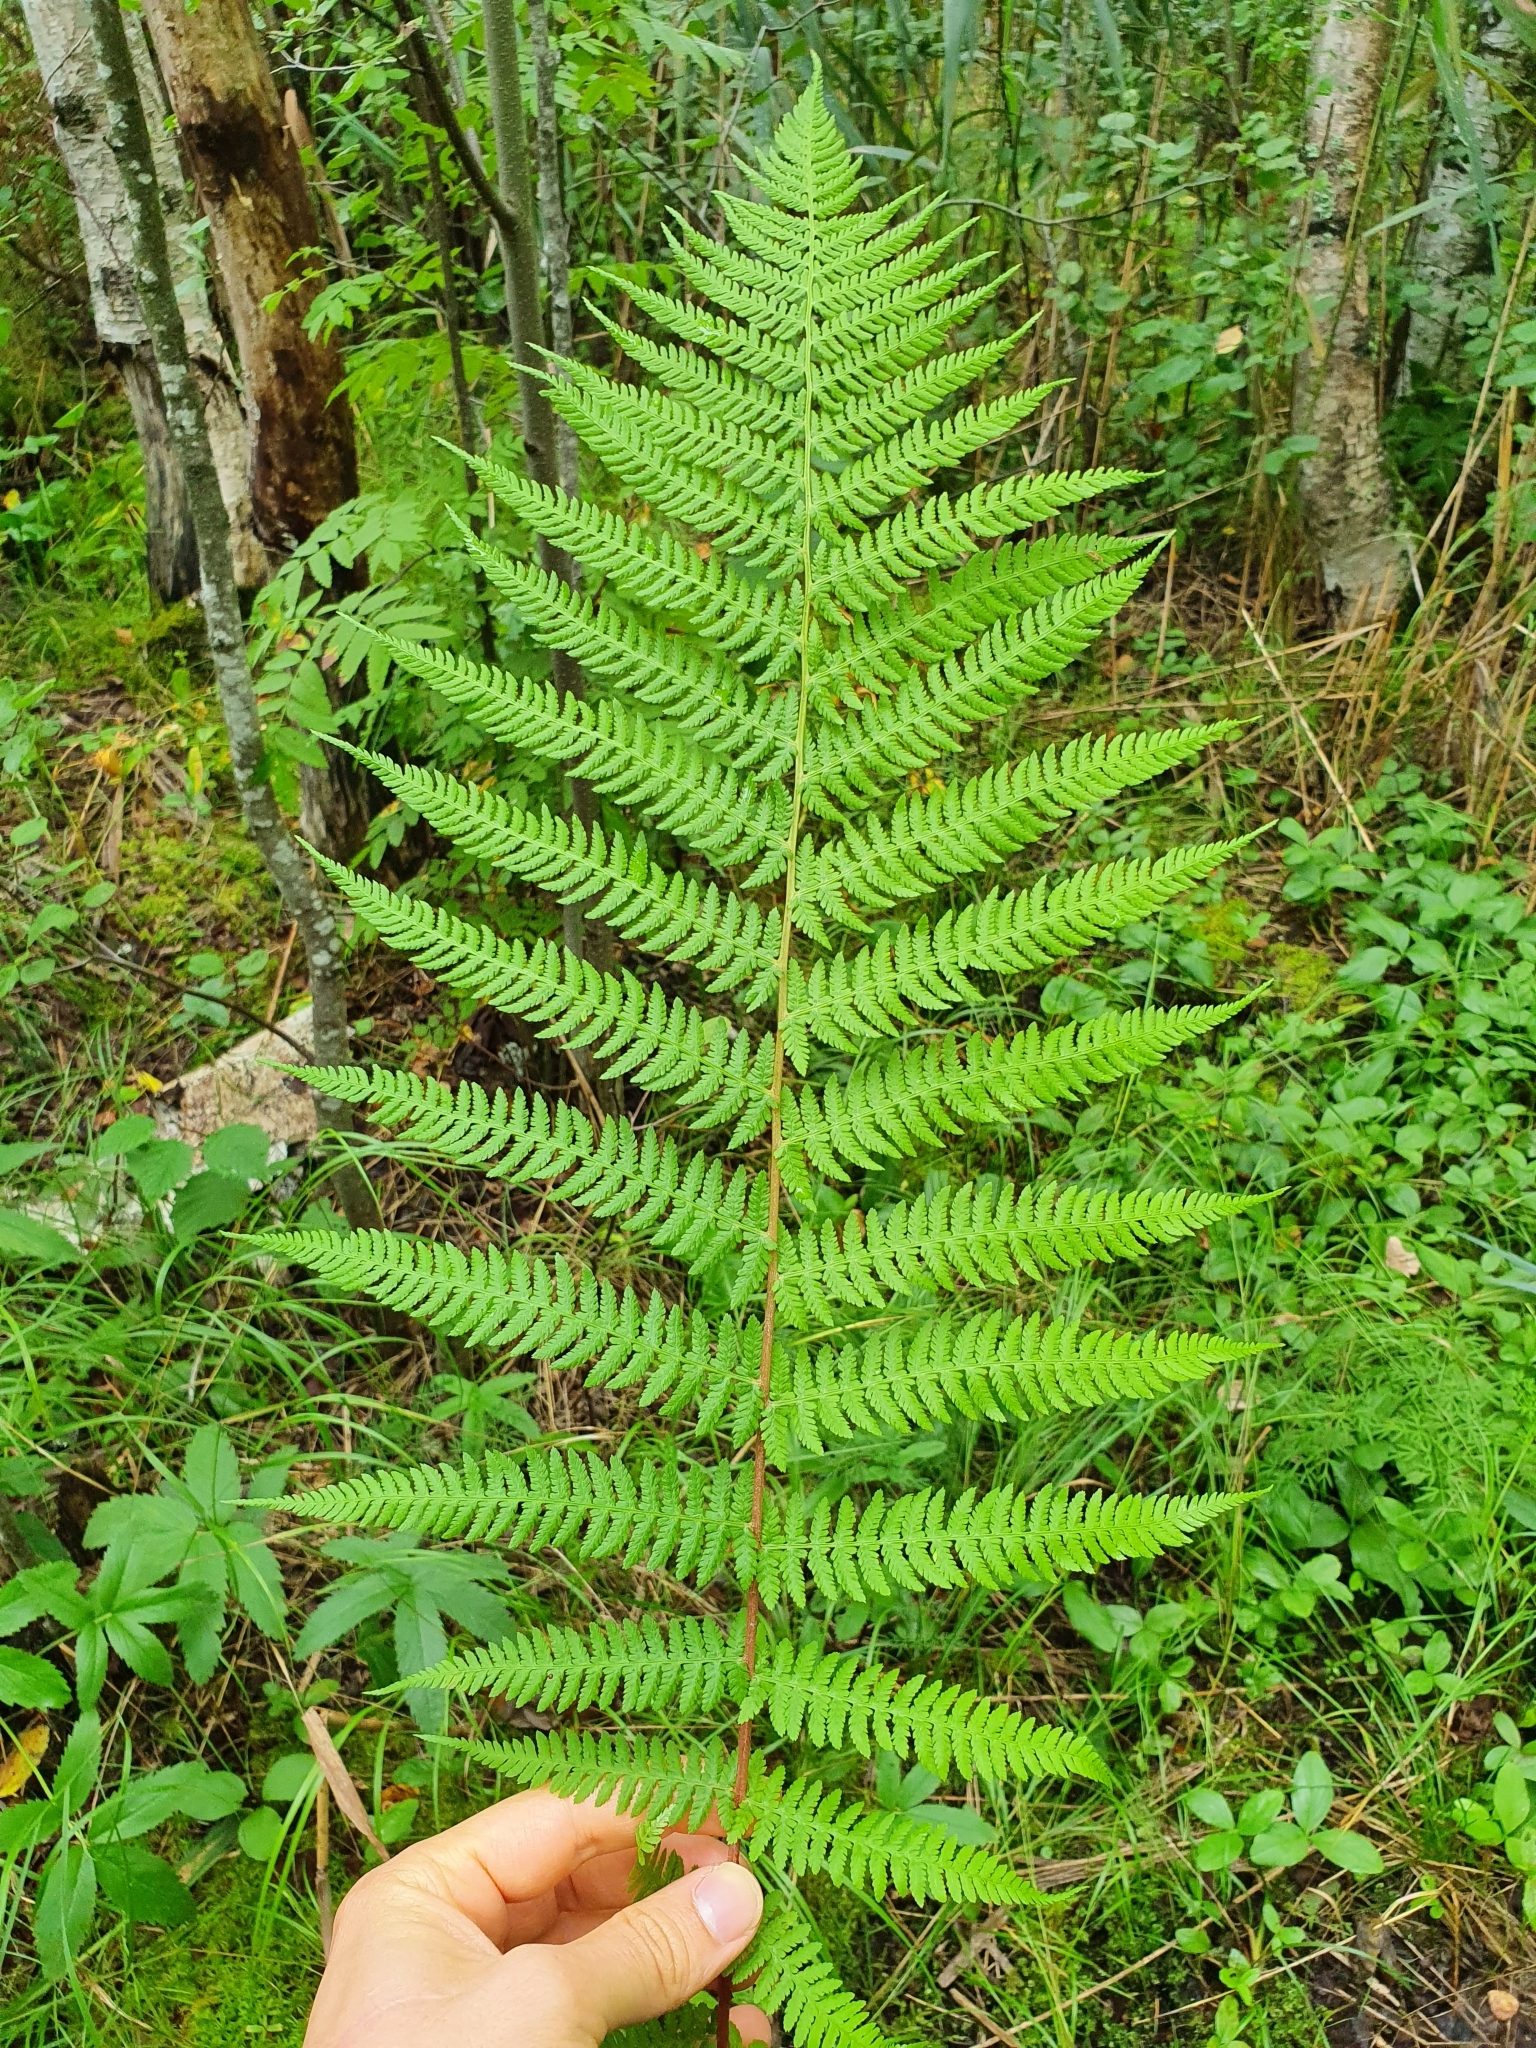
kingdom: Plantae
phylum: Tracheophyta
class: Polypodiopsida
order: Polypodiales
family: Athyriaceae
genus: Athyrium
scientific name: Athyrium filix-femina
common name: Lady fern
